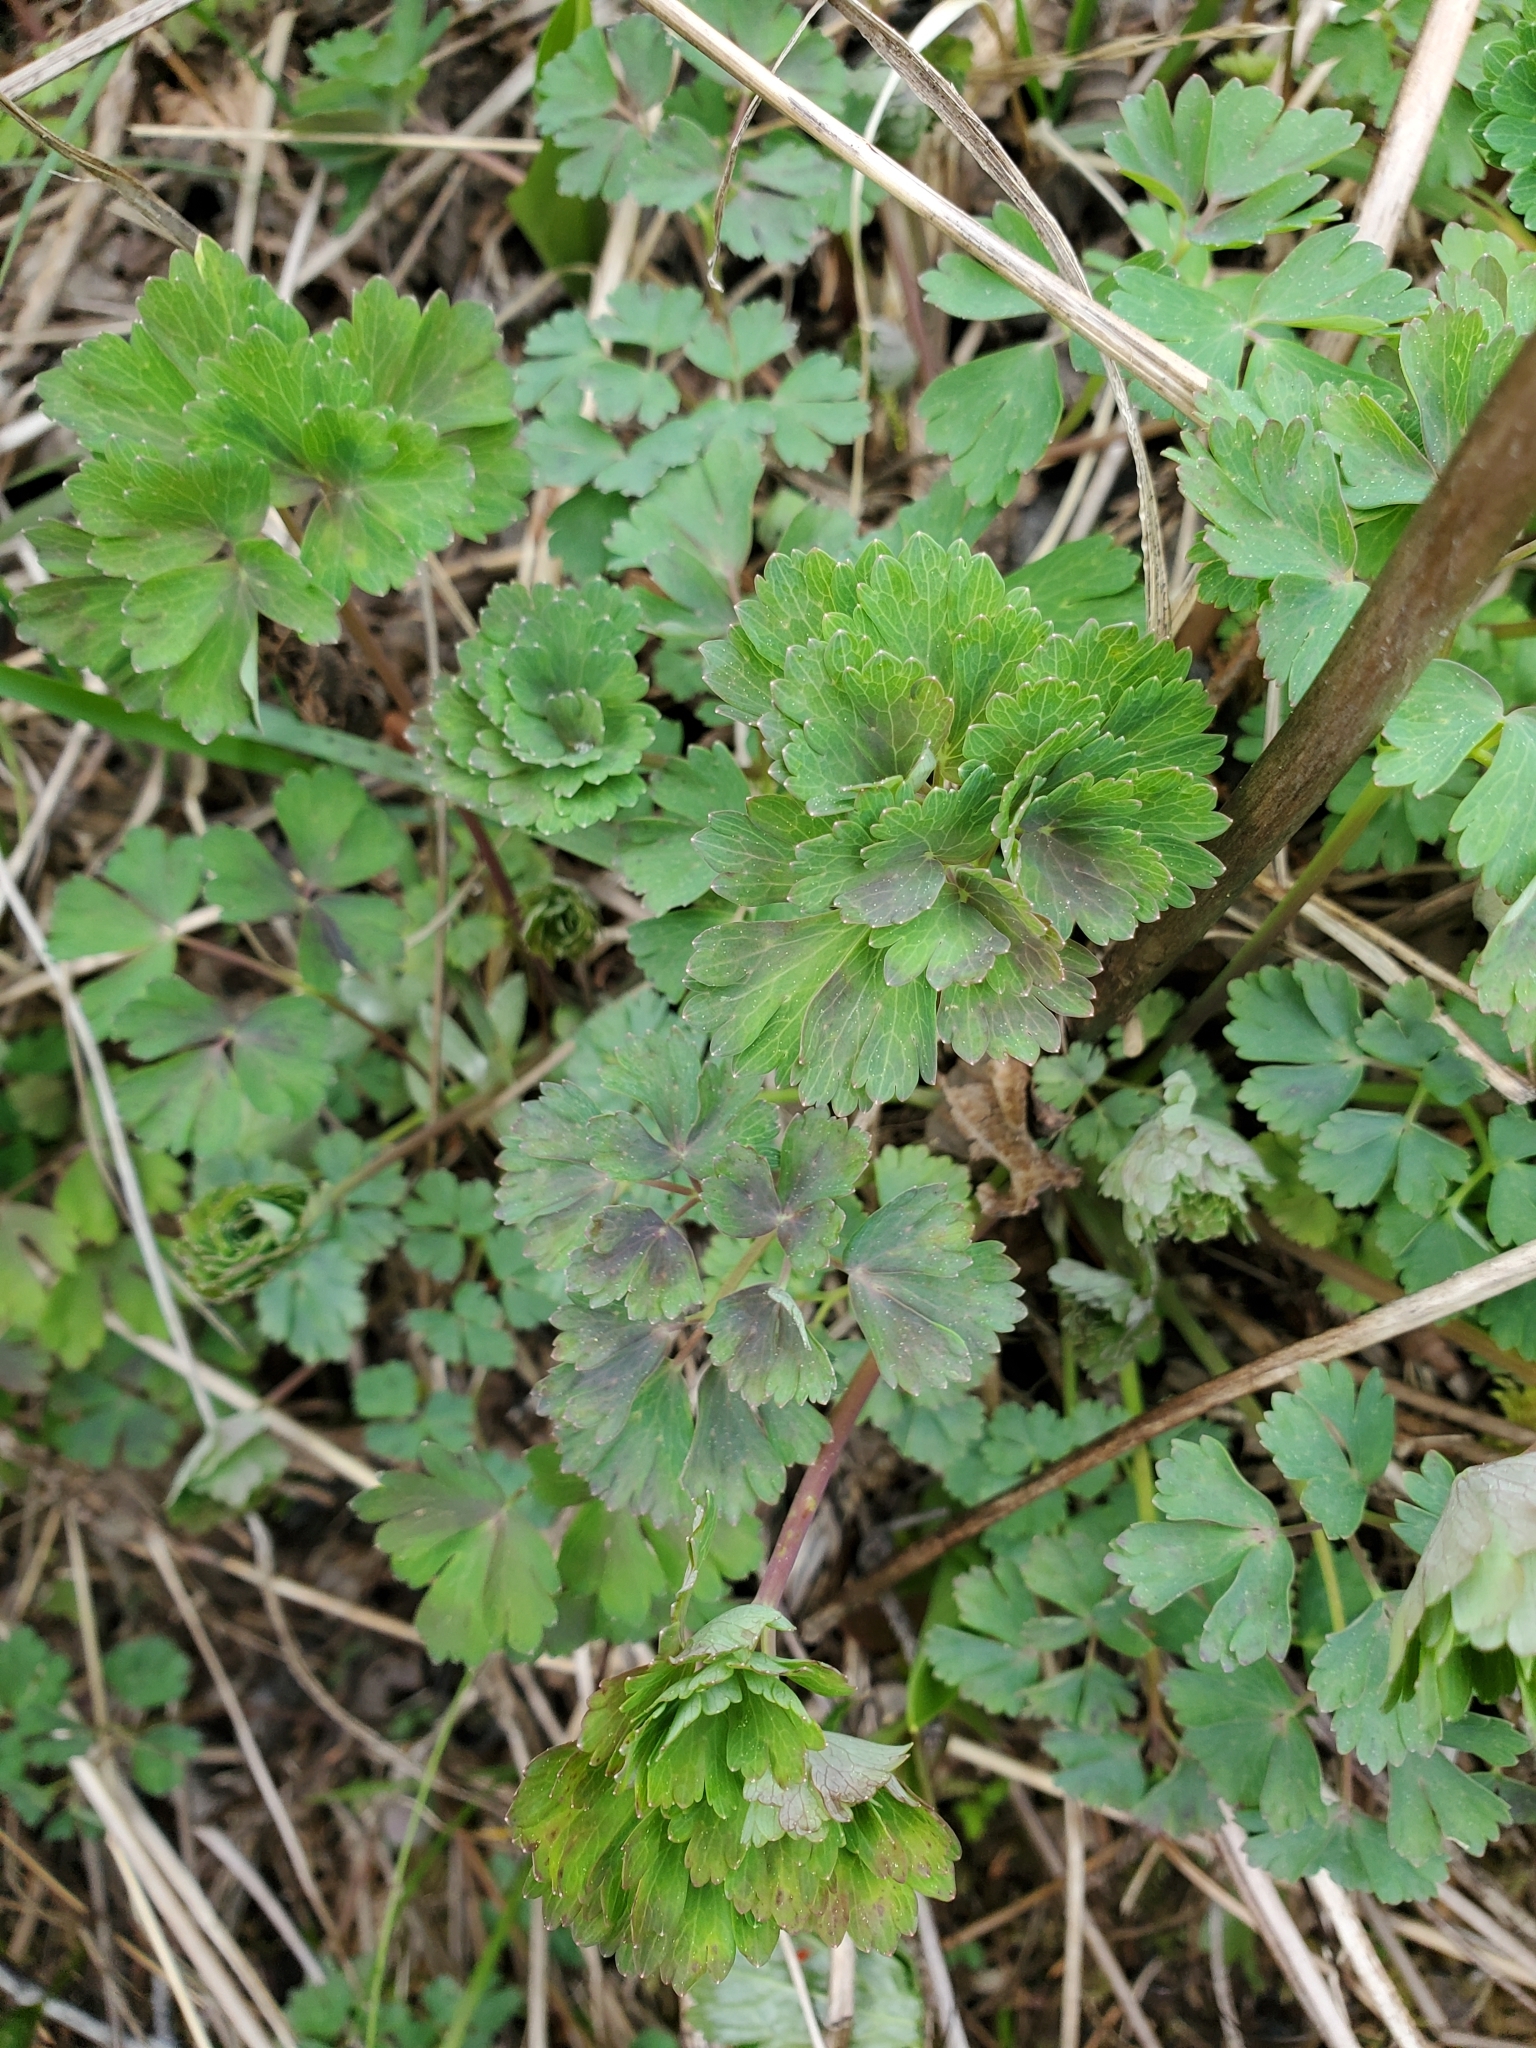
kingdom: Plantae
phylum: Tracheophyta
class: Magnoliopsida
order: Ranunculales
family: Ranunculaceae
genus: Aquilegia
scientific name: Aquilegia formosa
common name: Sitka columbine
